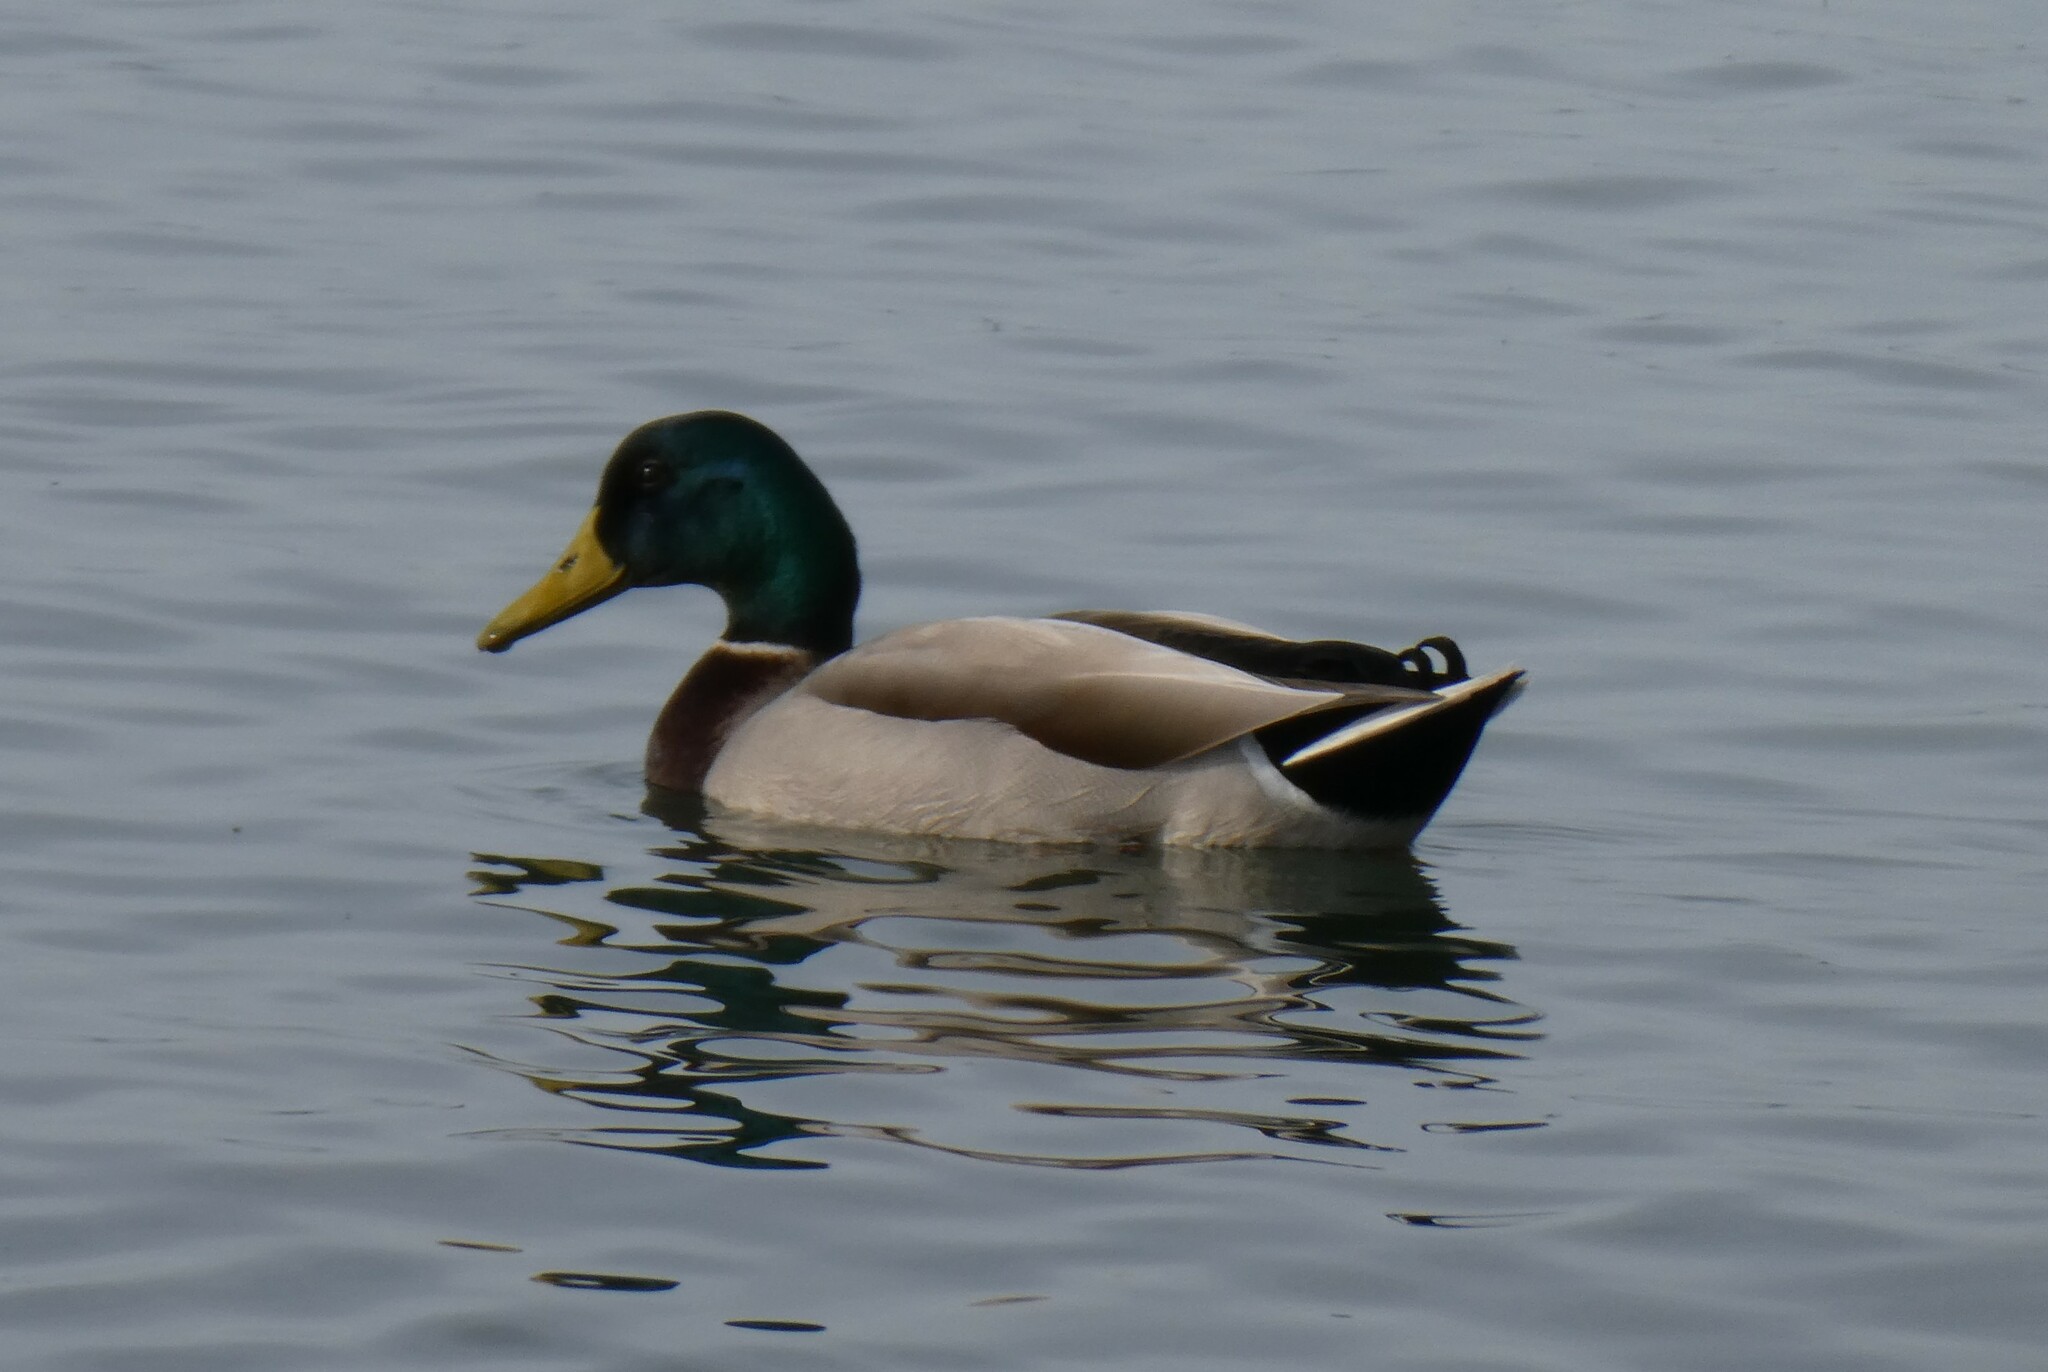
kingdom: Animalia
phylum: Chordata
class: Aves
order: Anseriformes
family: Anatidae
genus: Anas
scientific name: Anas platyrhynchos
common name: Mallard
